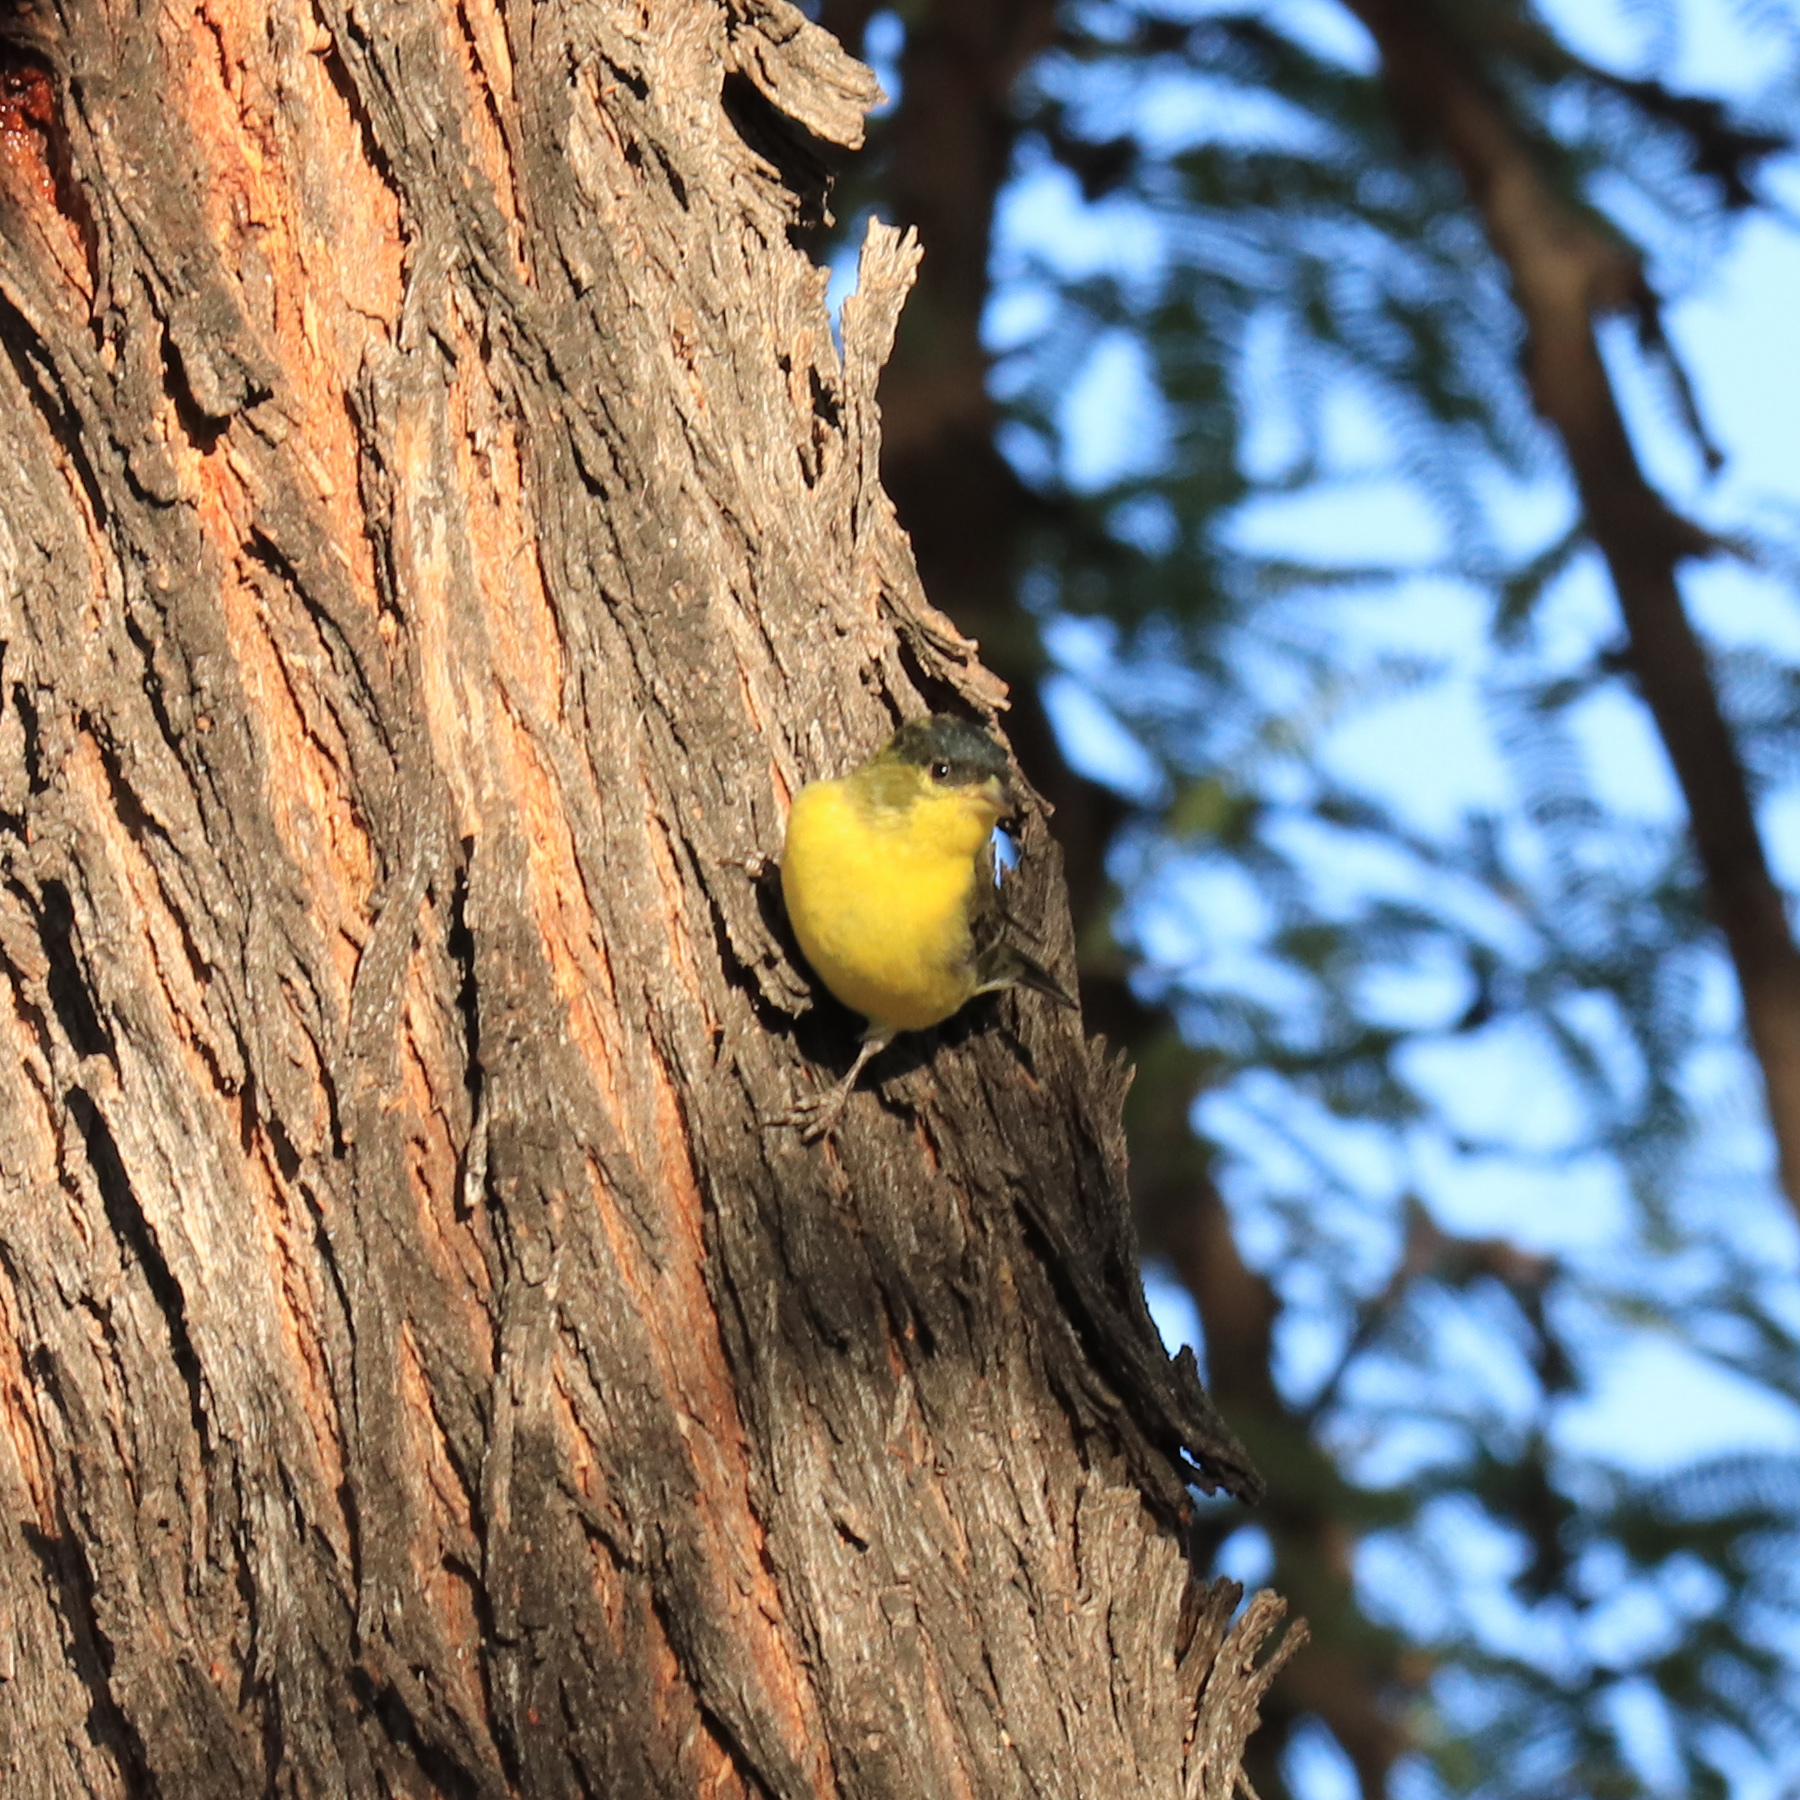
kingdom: Animalia
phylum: Chordata
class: Aves
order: Passeriformes
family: Fringillidae
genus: Spinus
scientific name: Spinus psaltria
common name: Lesser goldfinch
